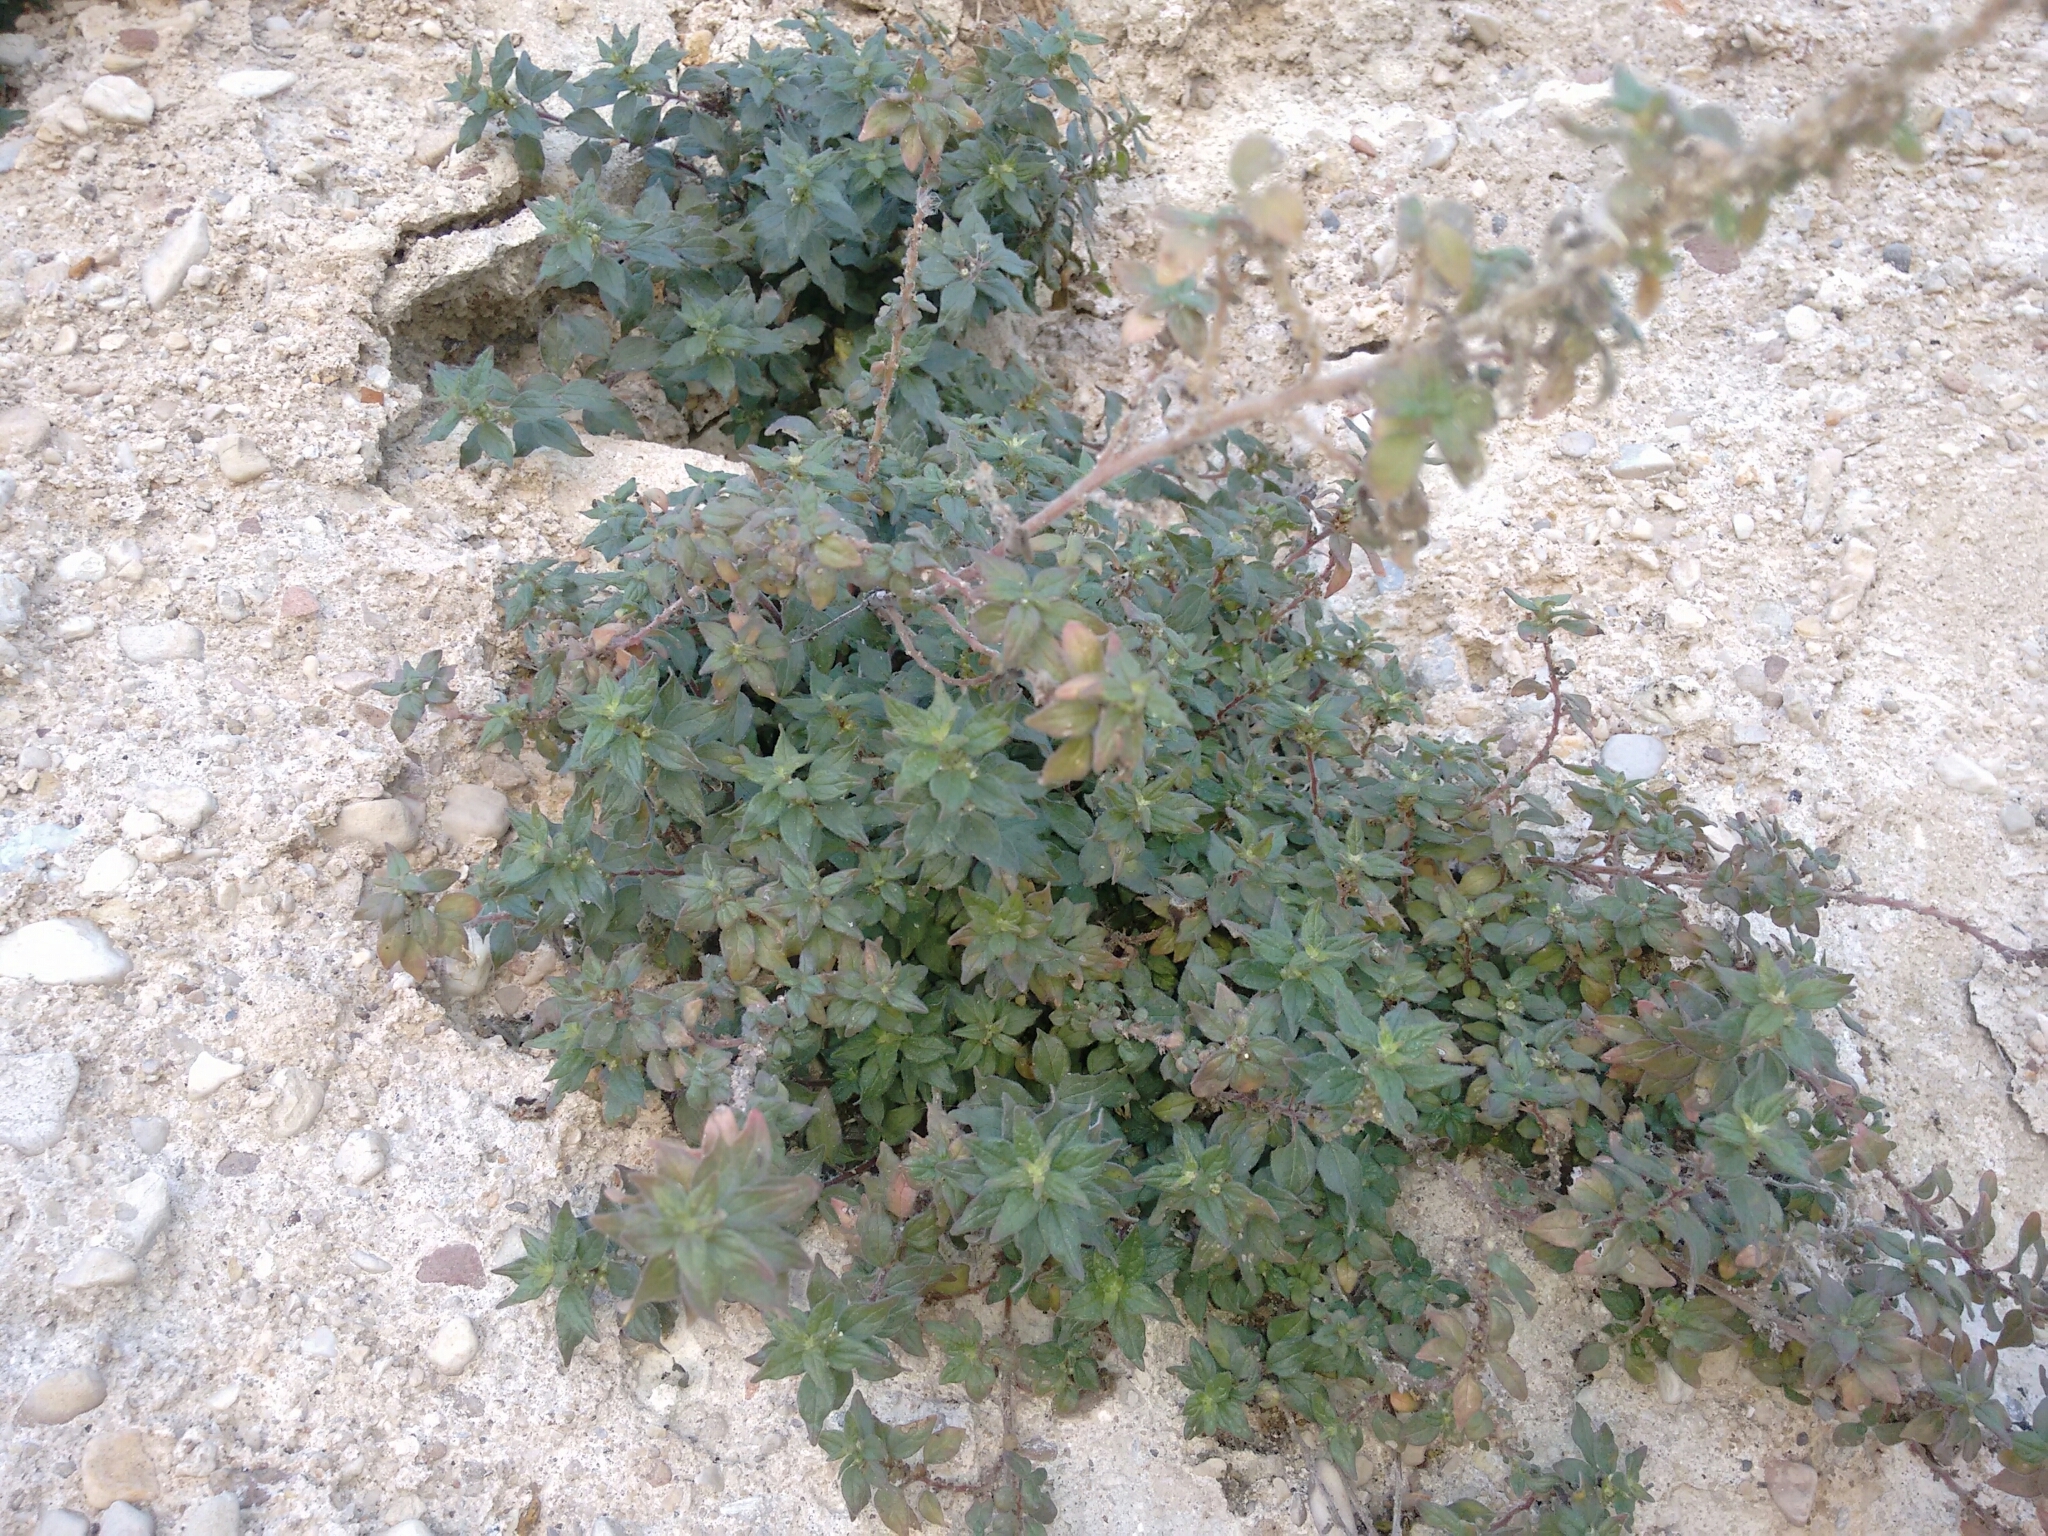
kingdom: Plantae
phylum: Tracheophyta
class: Magnoliopsida
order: Rosales
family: Urticaceae
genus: Parietaria
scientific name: Parietaria judaica
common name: Pellitory-of-the-wall
